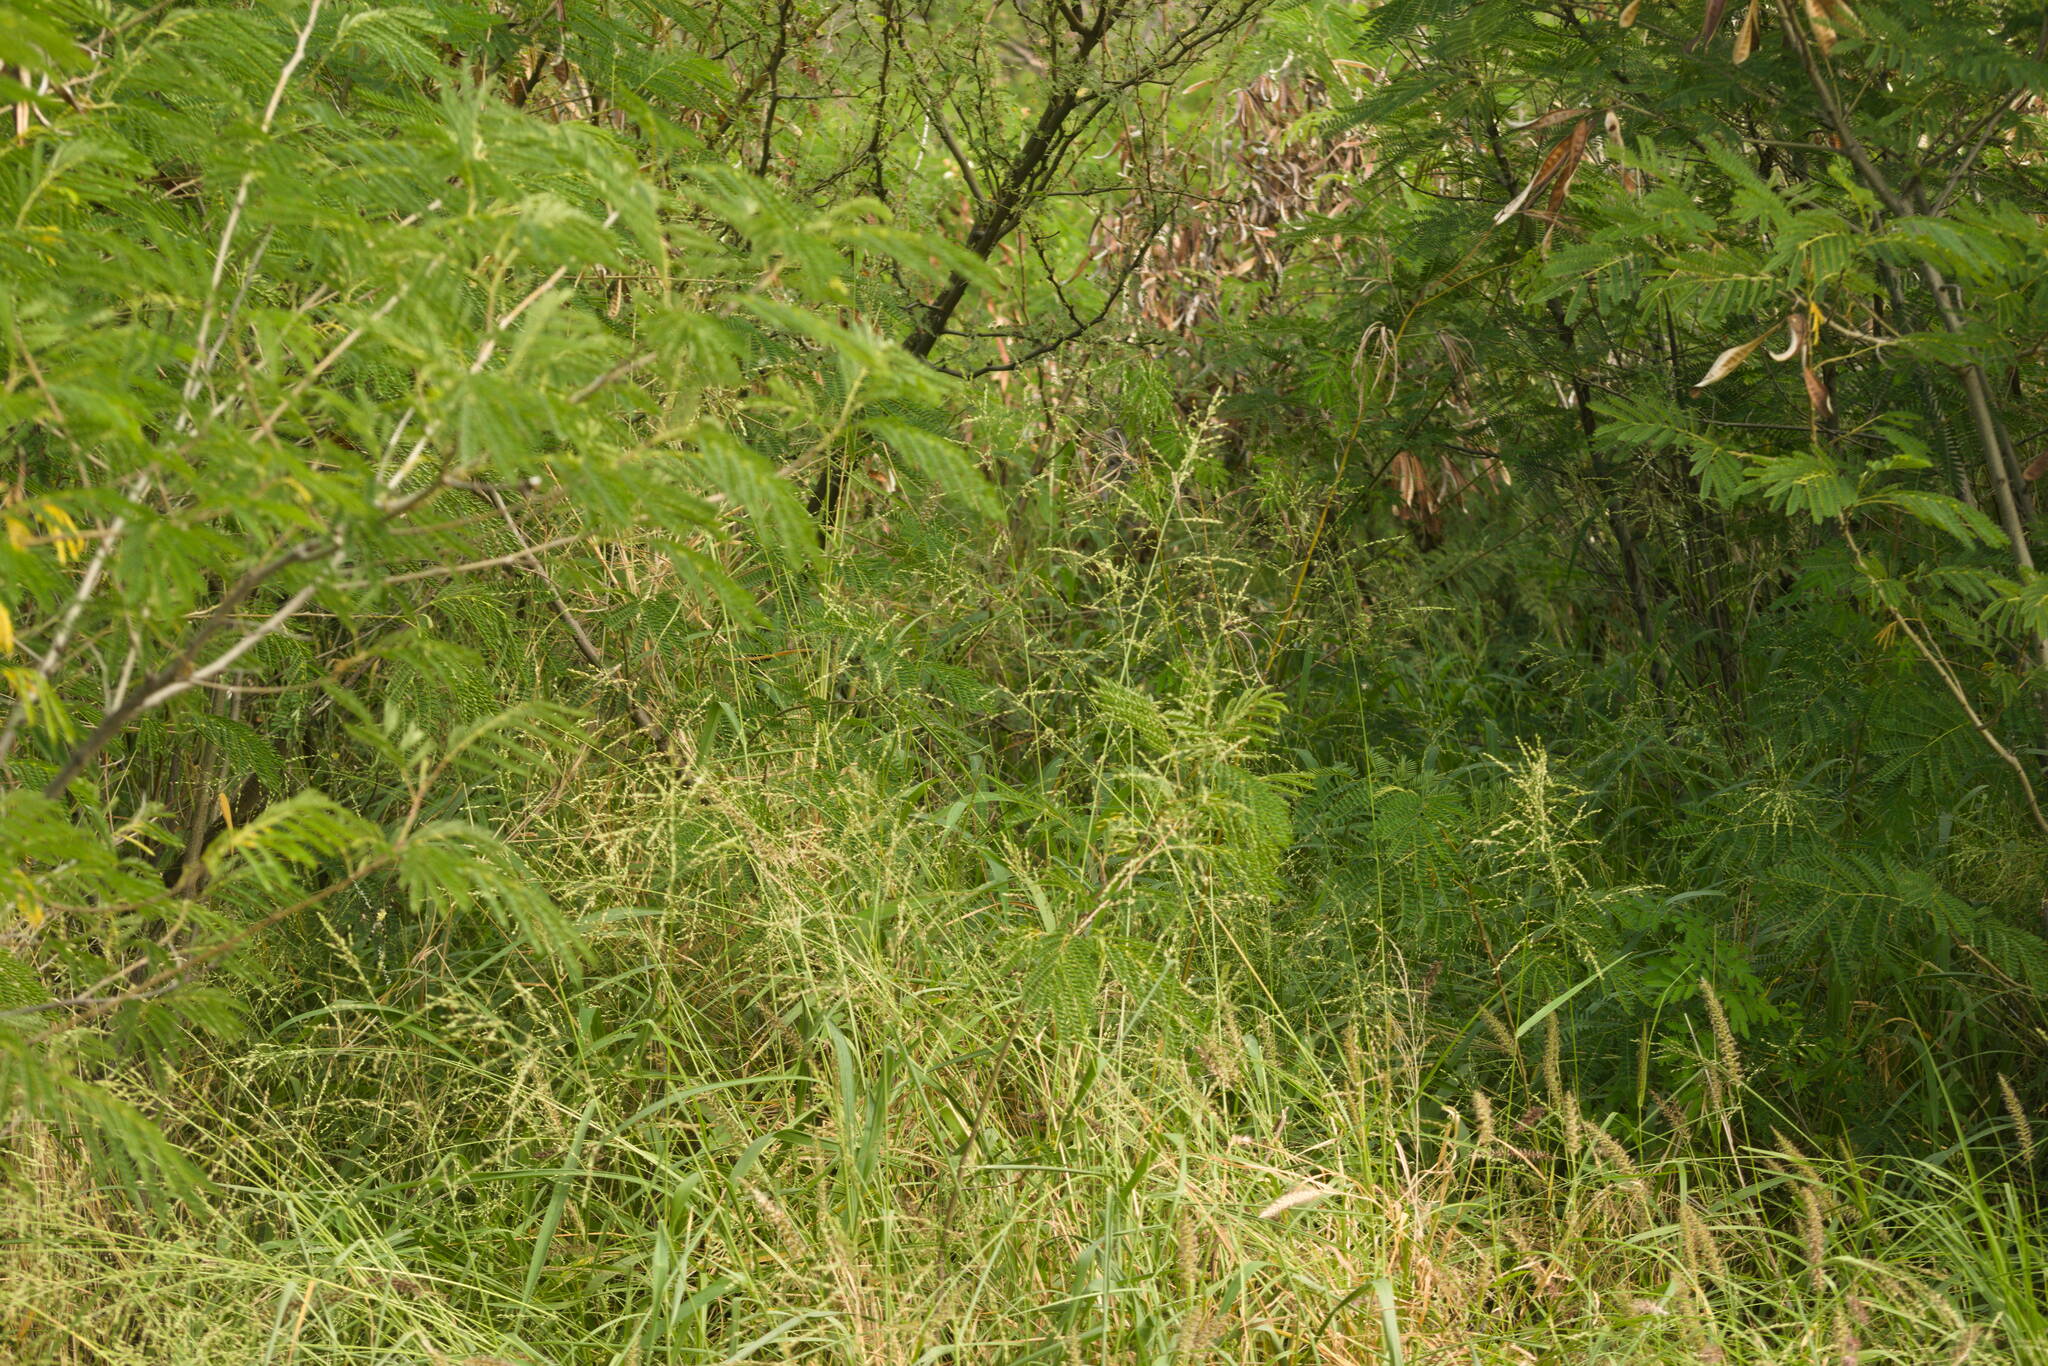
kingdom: Plantae
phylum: Tracheophyta
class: Liliopsida
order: Poales
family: Poaceae
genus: Megathyrsus
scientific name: Megathyrsus maximus
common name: Guineagrass
